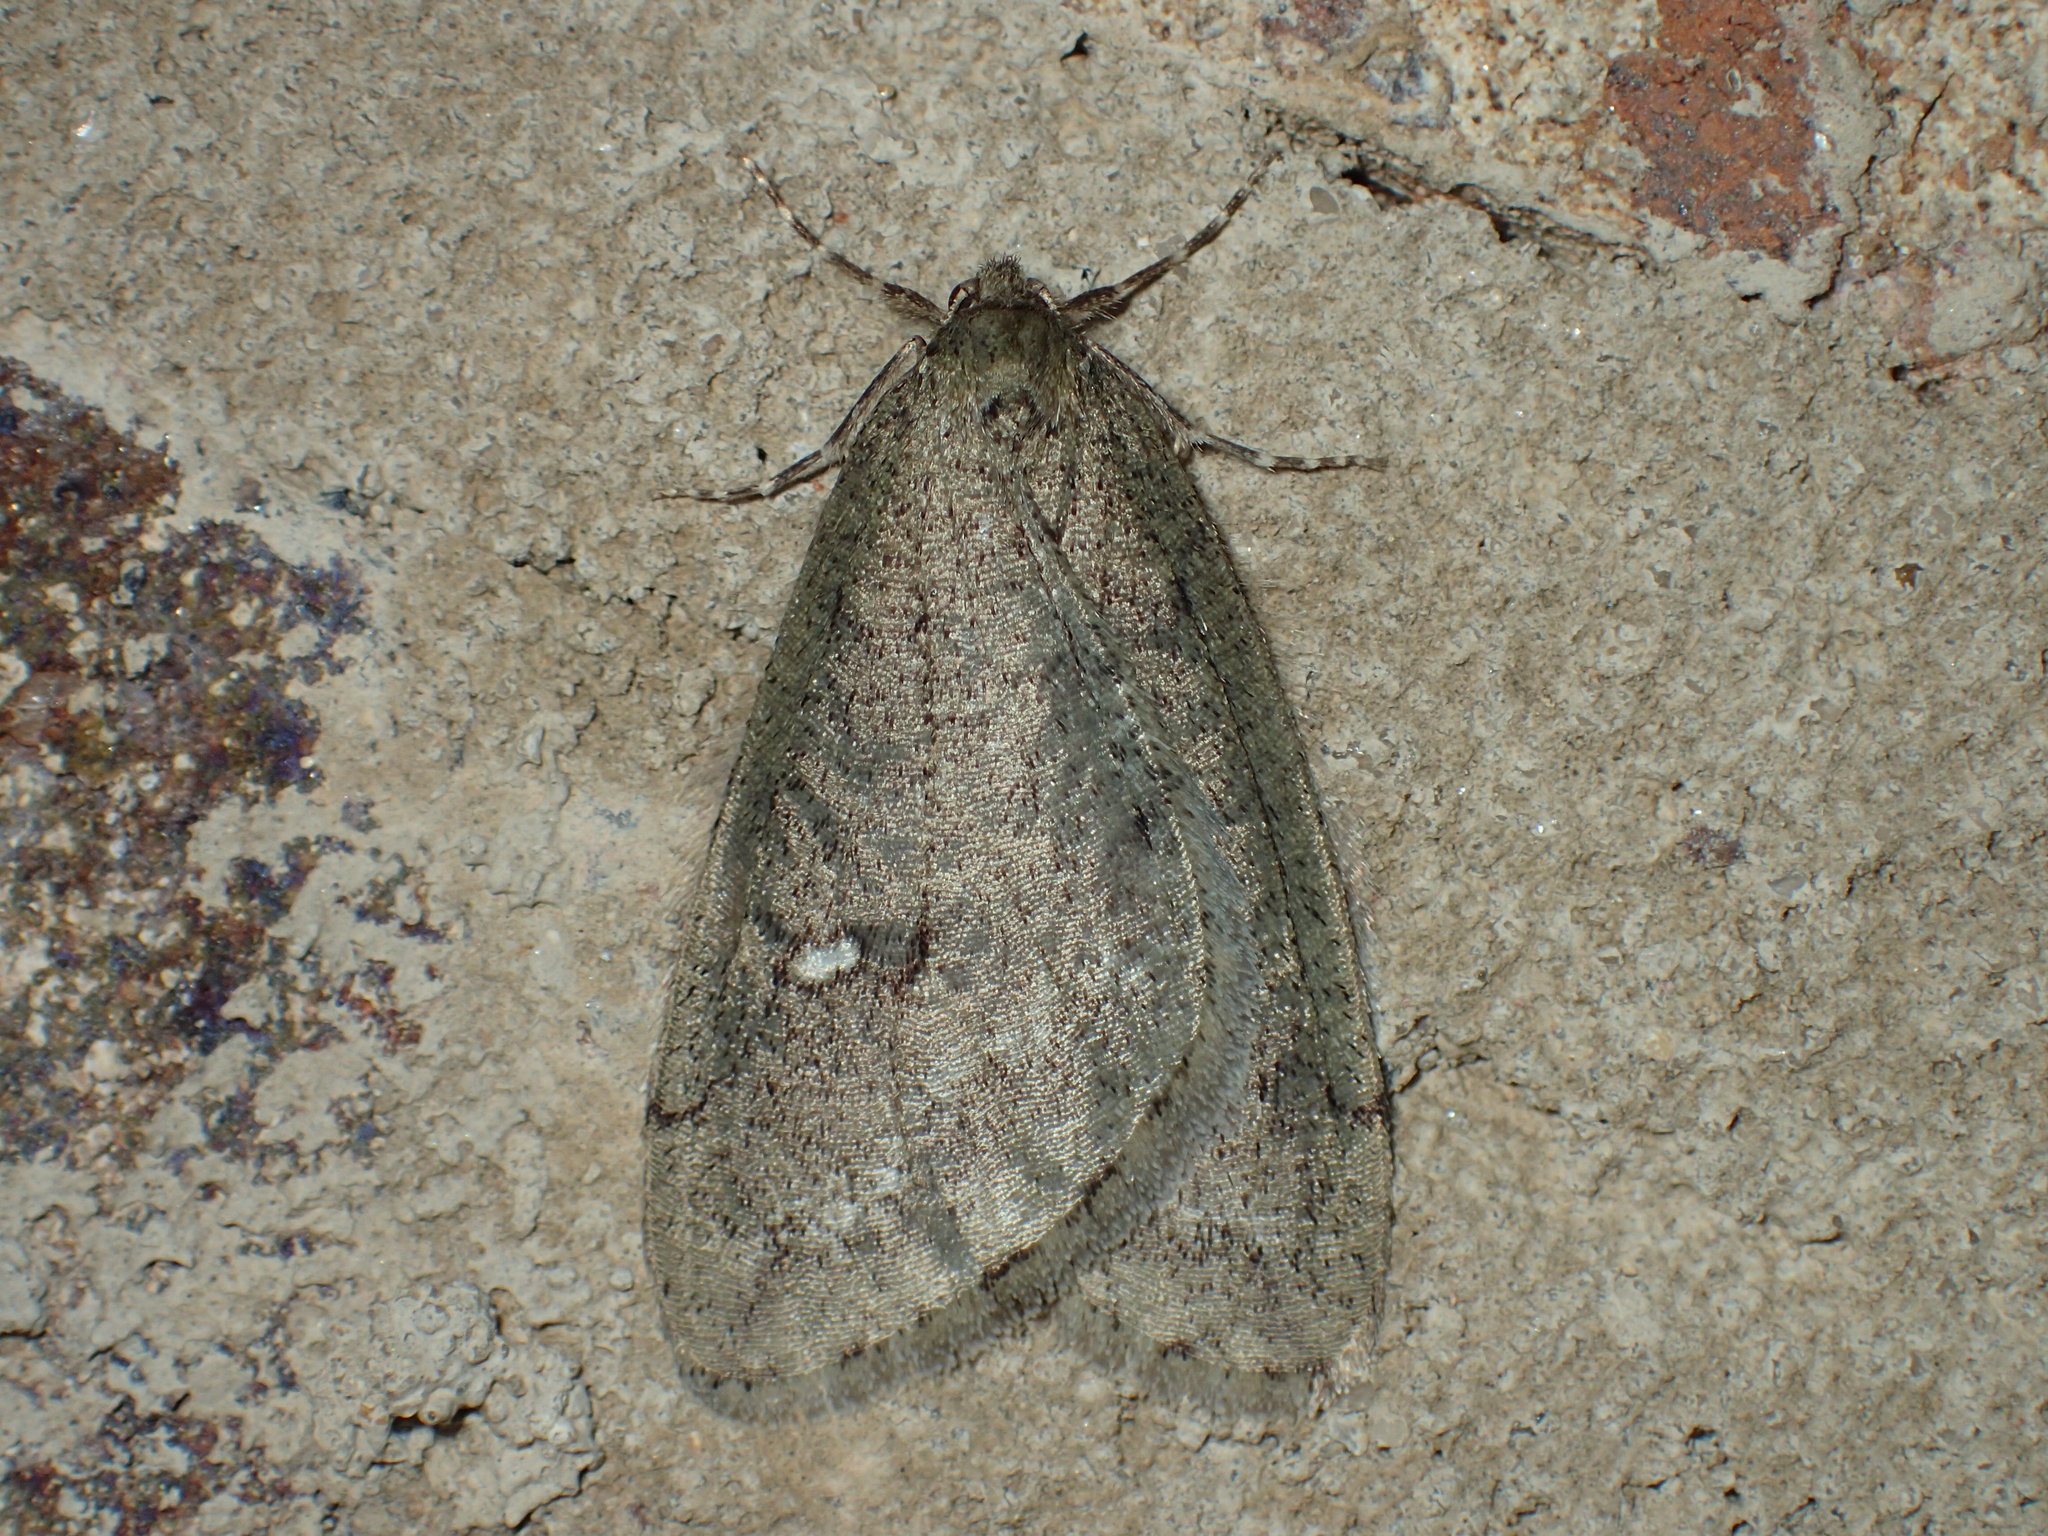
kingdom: Animalia
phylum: Arthropoda
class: Insecta
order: Lepidoptera
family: Geometridae
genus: Paleacrita
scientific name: Paleacrita merriccata
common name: White-spotted canker worm
